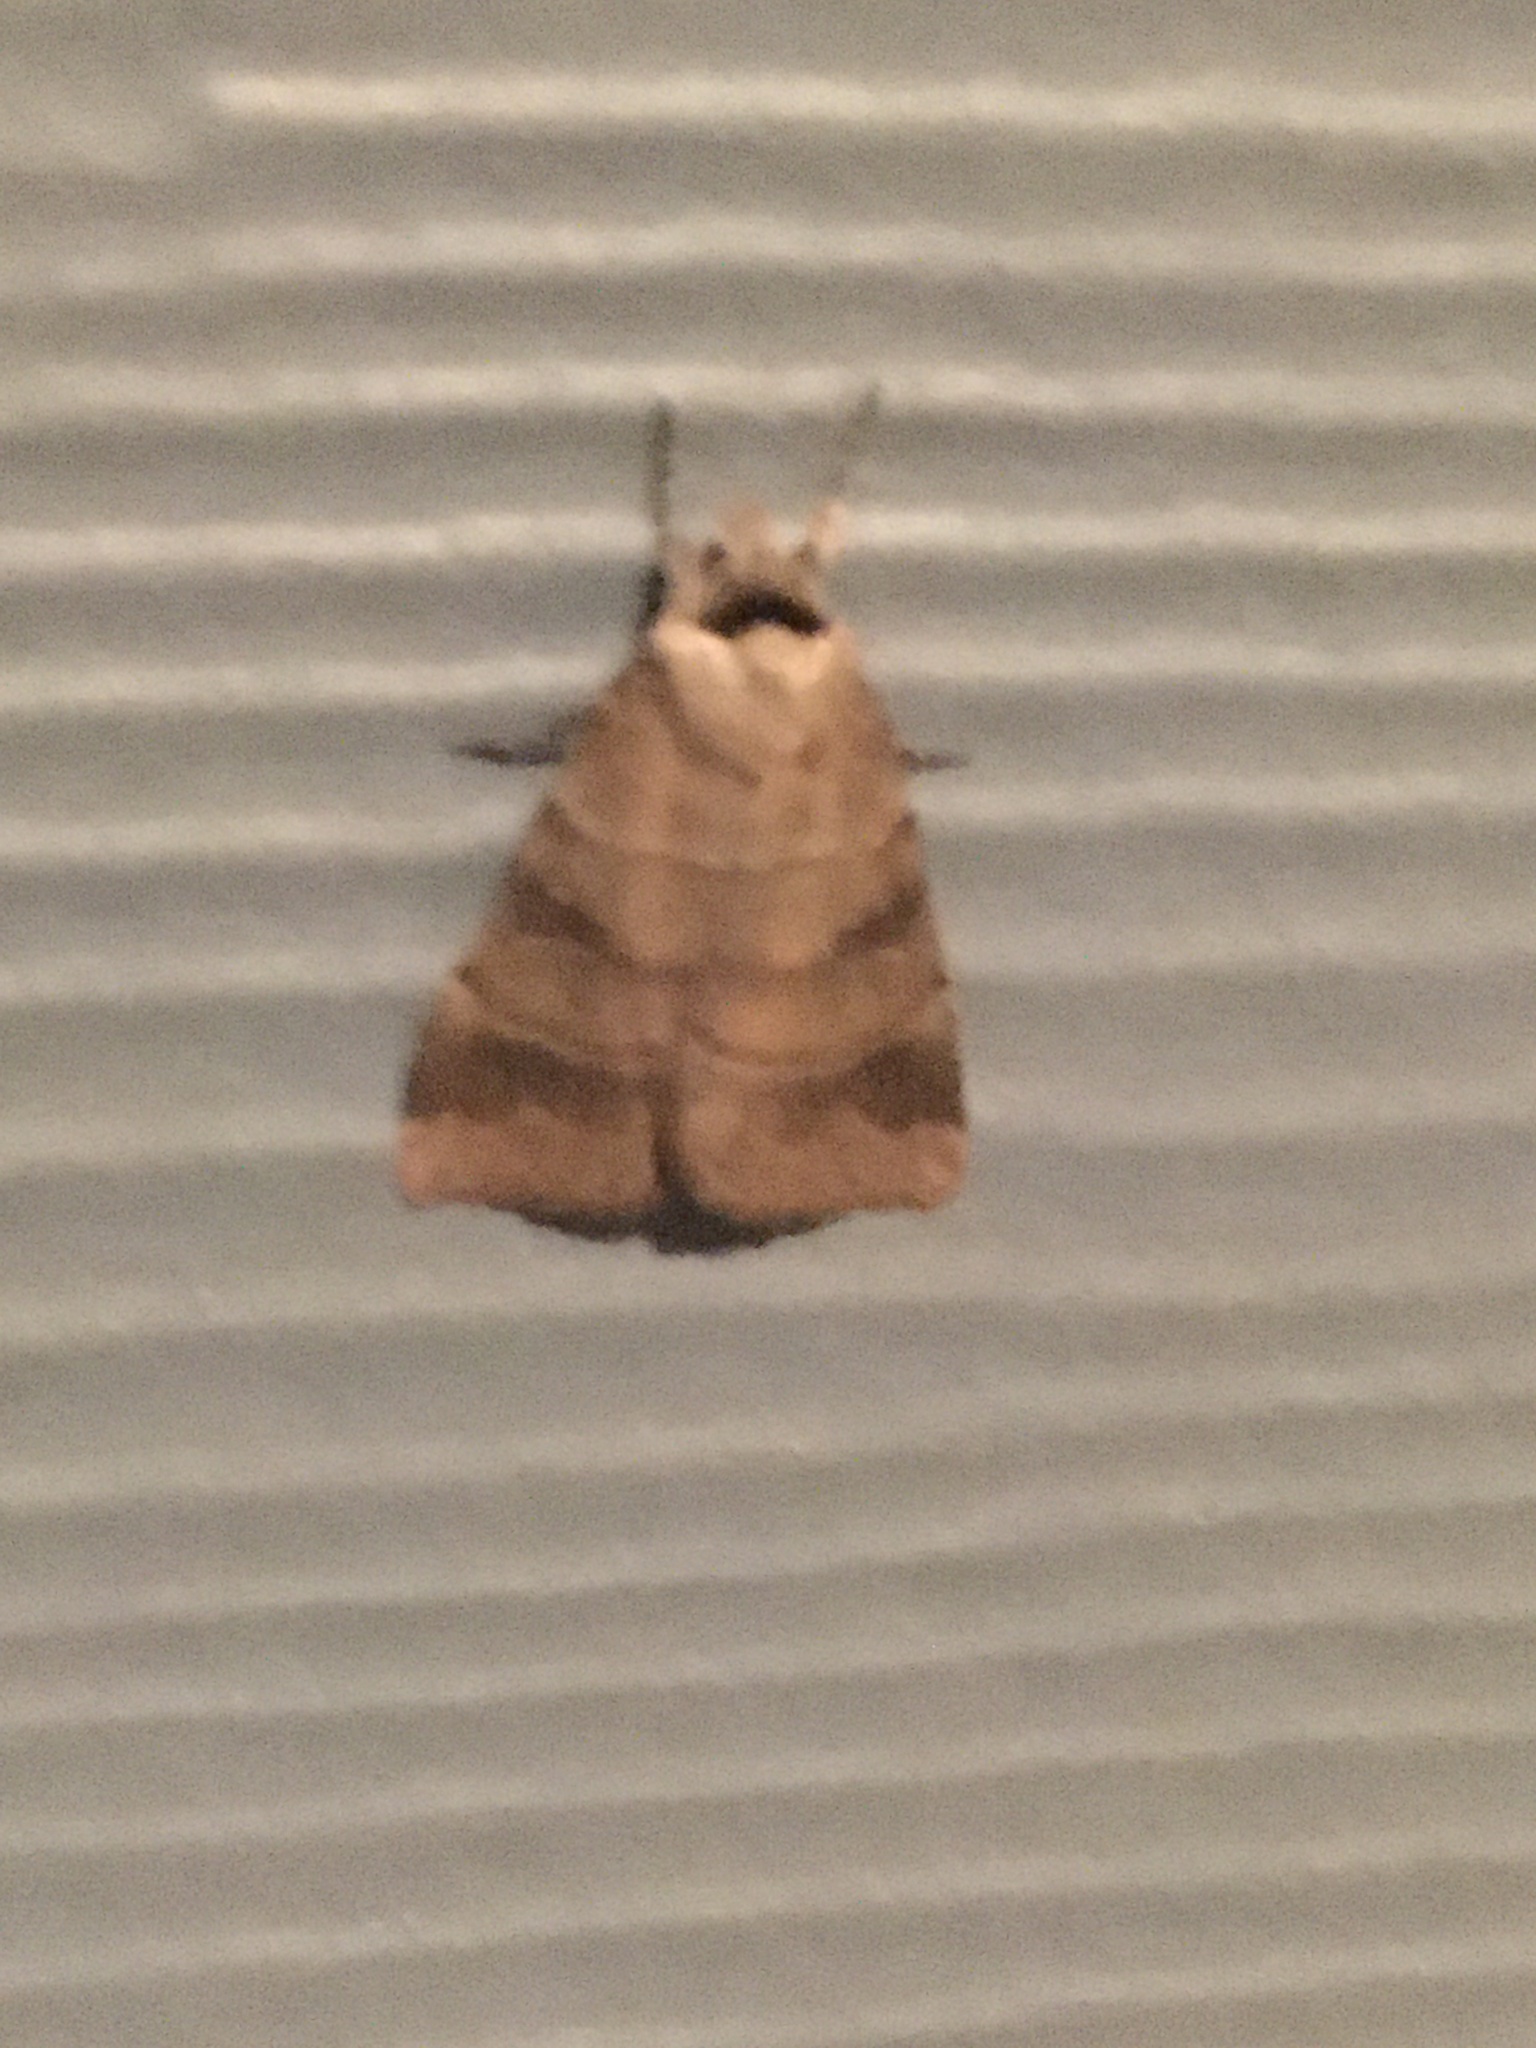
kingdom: Animalia
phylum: Arthropoda
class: Insecta
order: Lepidoptera
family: Noctuidae
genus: Agnorisma
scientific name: Agnorisma badinodis
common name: Pale-banded dart
